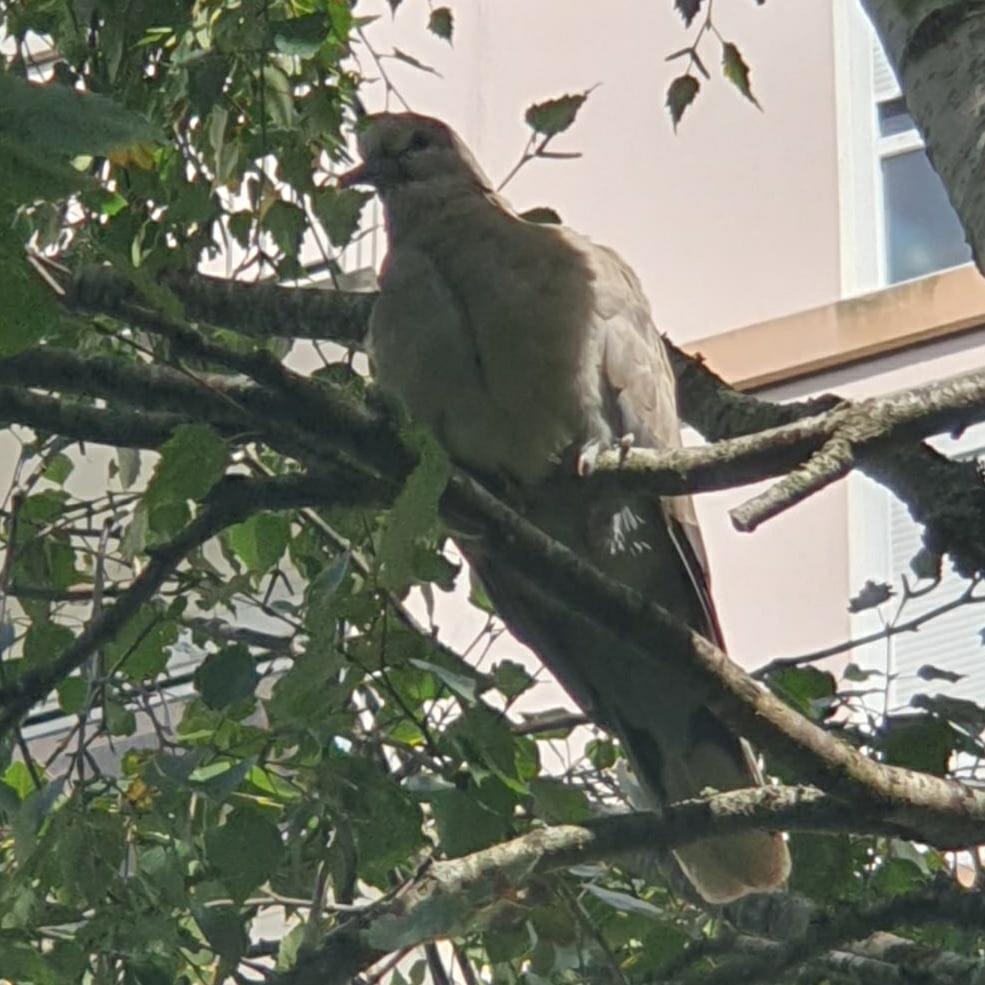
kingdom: Animalia
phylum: Chordata
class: Aves
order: Columbiformes
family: Columbidae
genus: Streptopelia
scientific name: Streptopelia decaocto
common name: Eurasian collared dove
